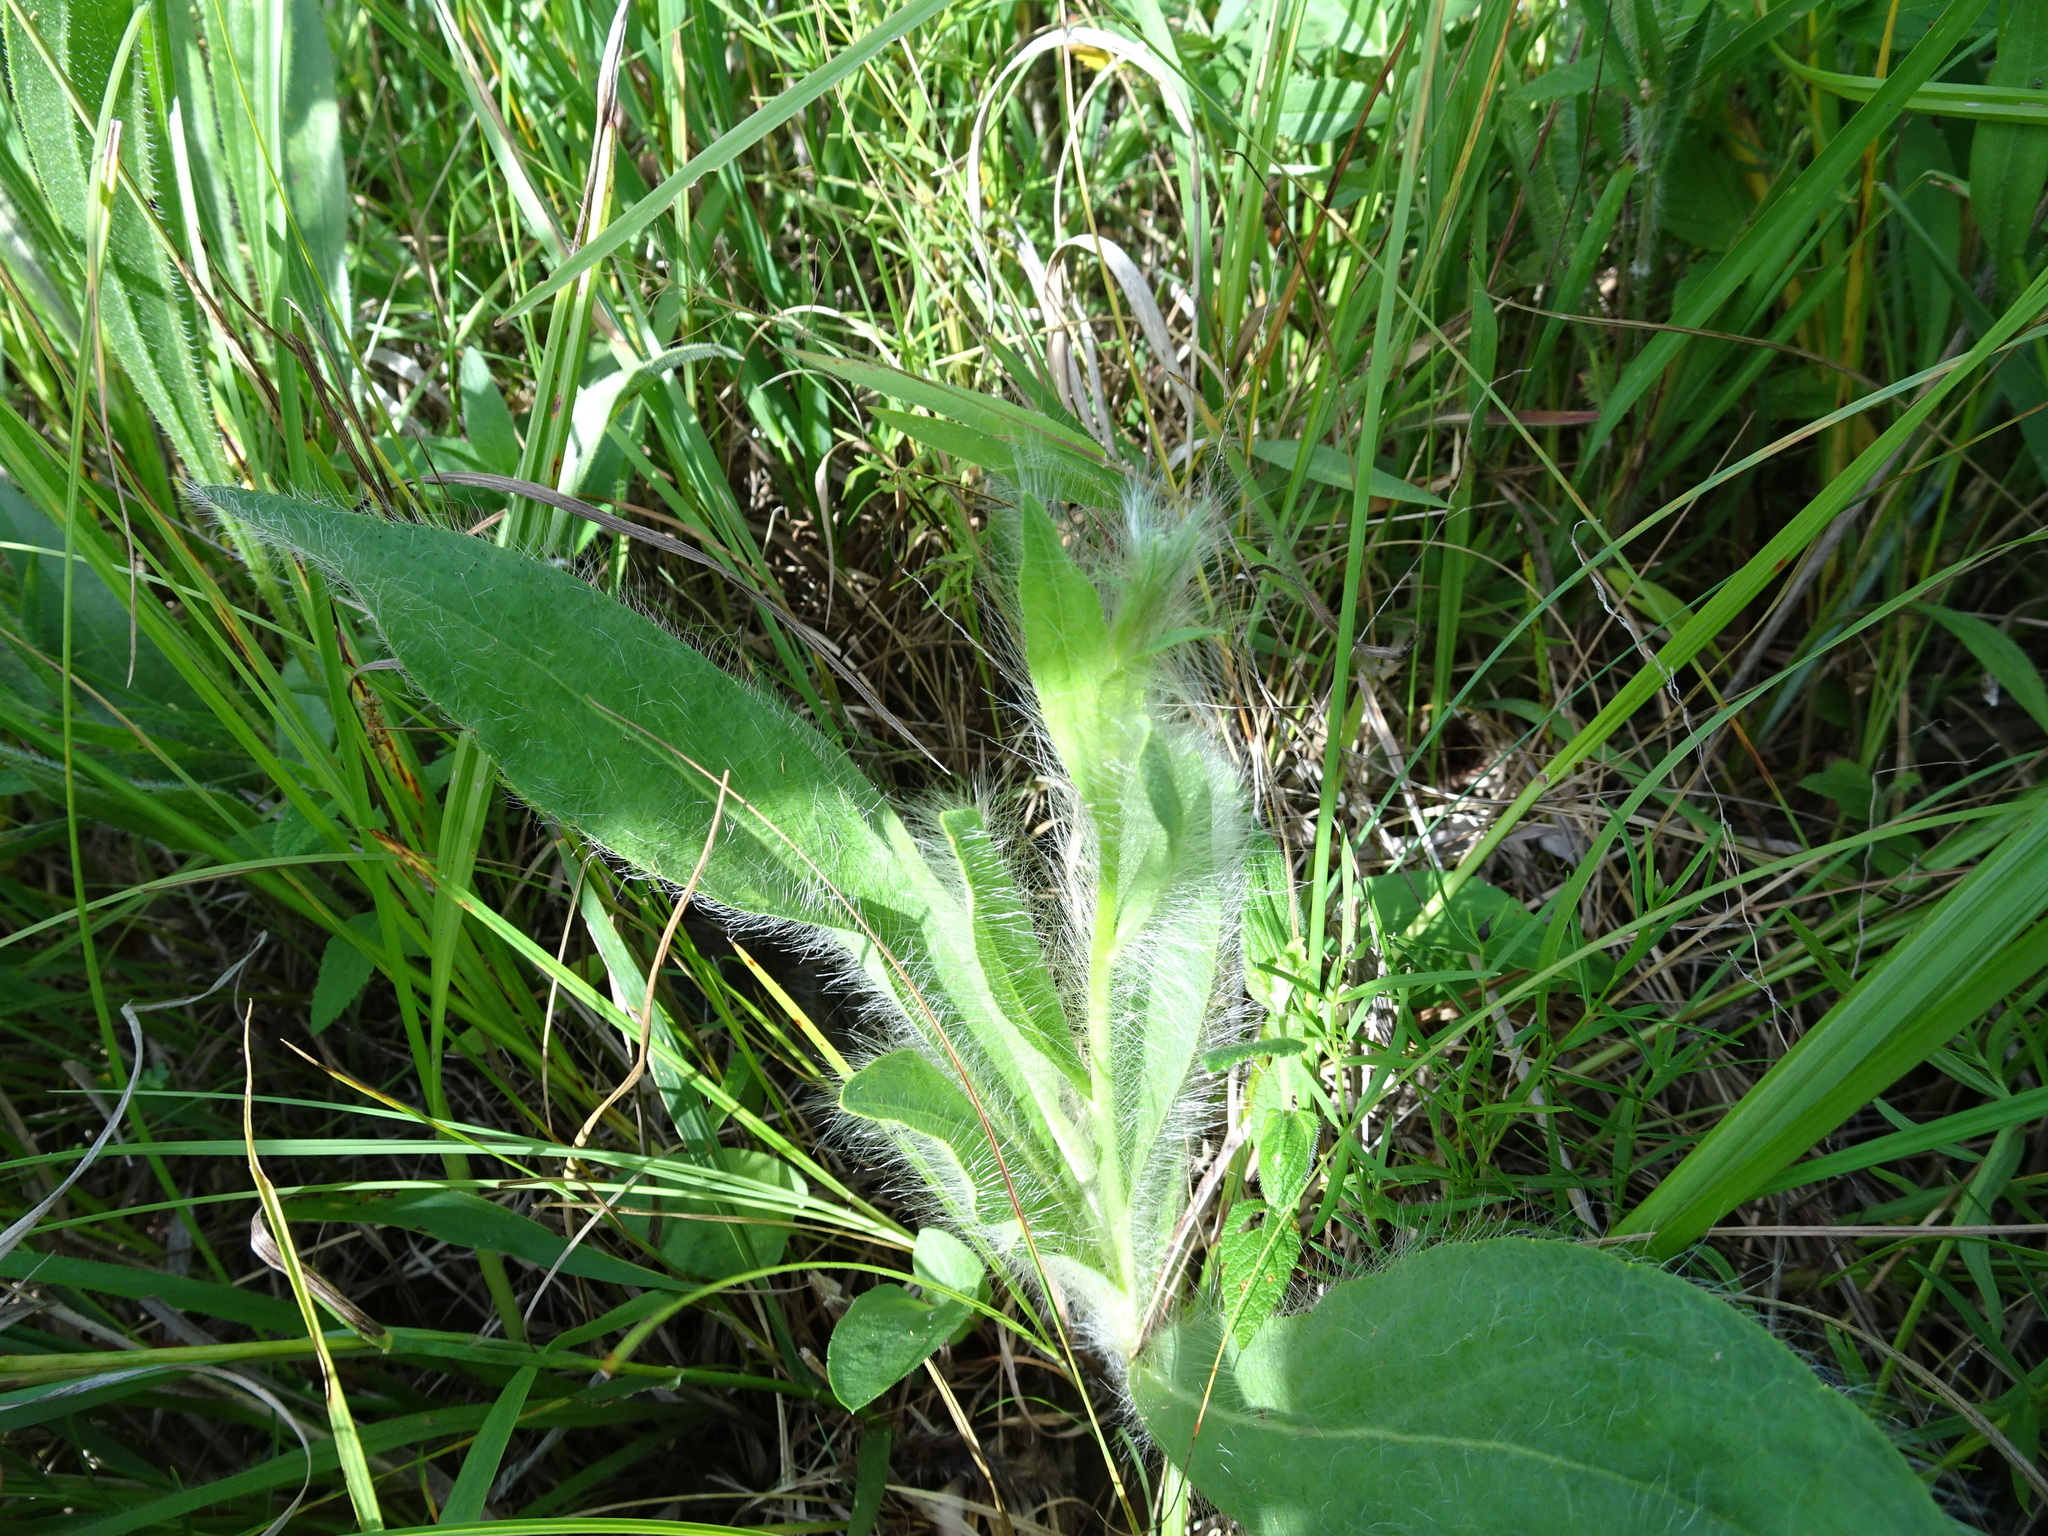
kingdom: Plantae
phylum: Tracheophyta
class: Magnoliopsida
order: Asterales
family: Asteraceae
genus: Hieracium
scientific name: Hieracium longipilum
